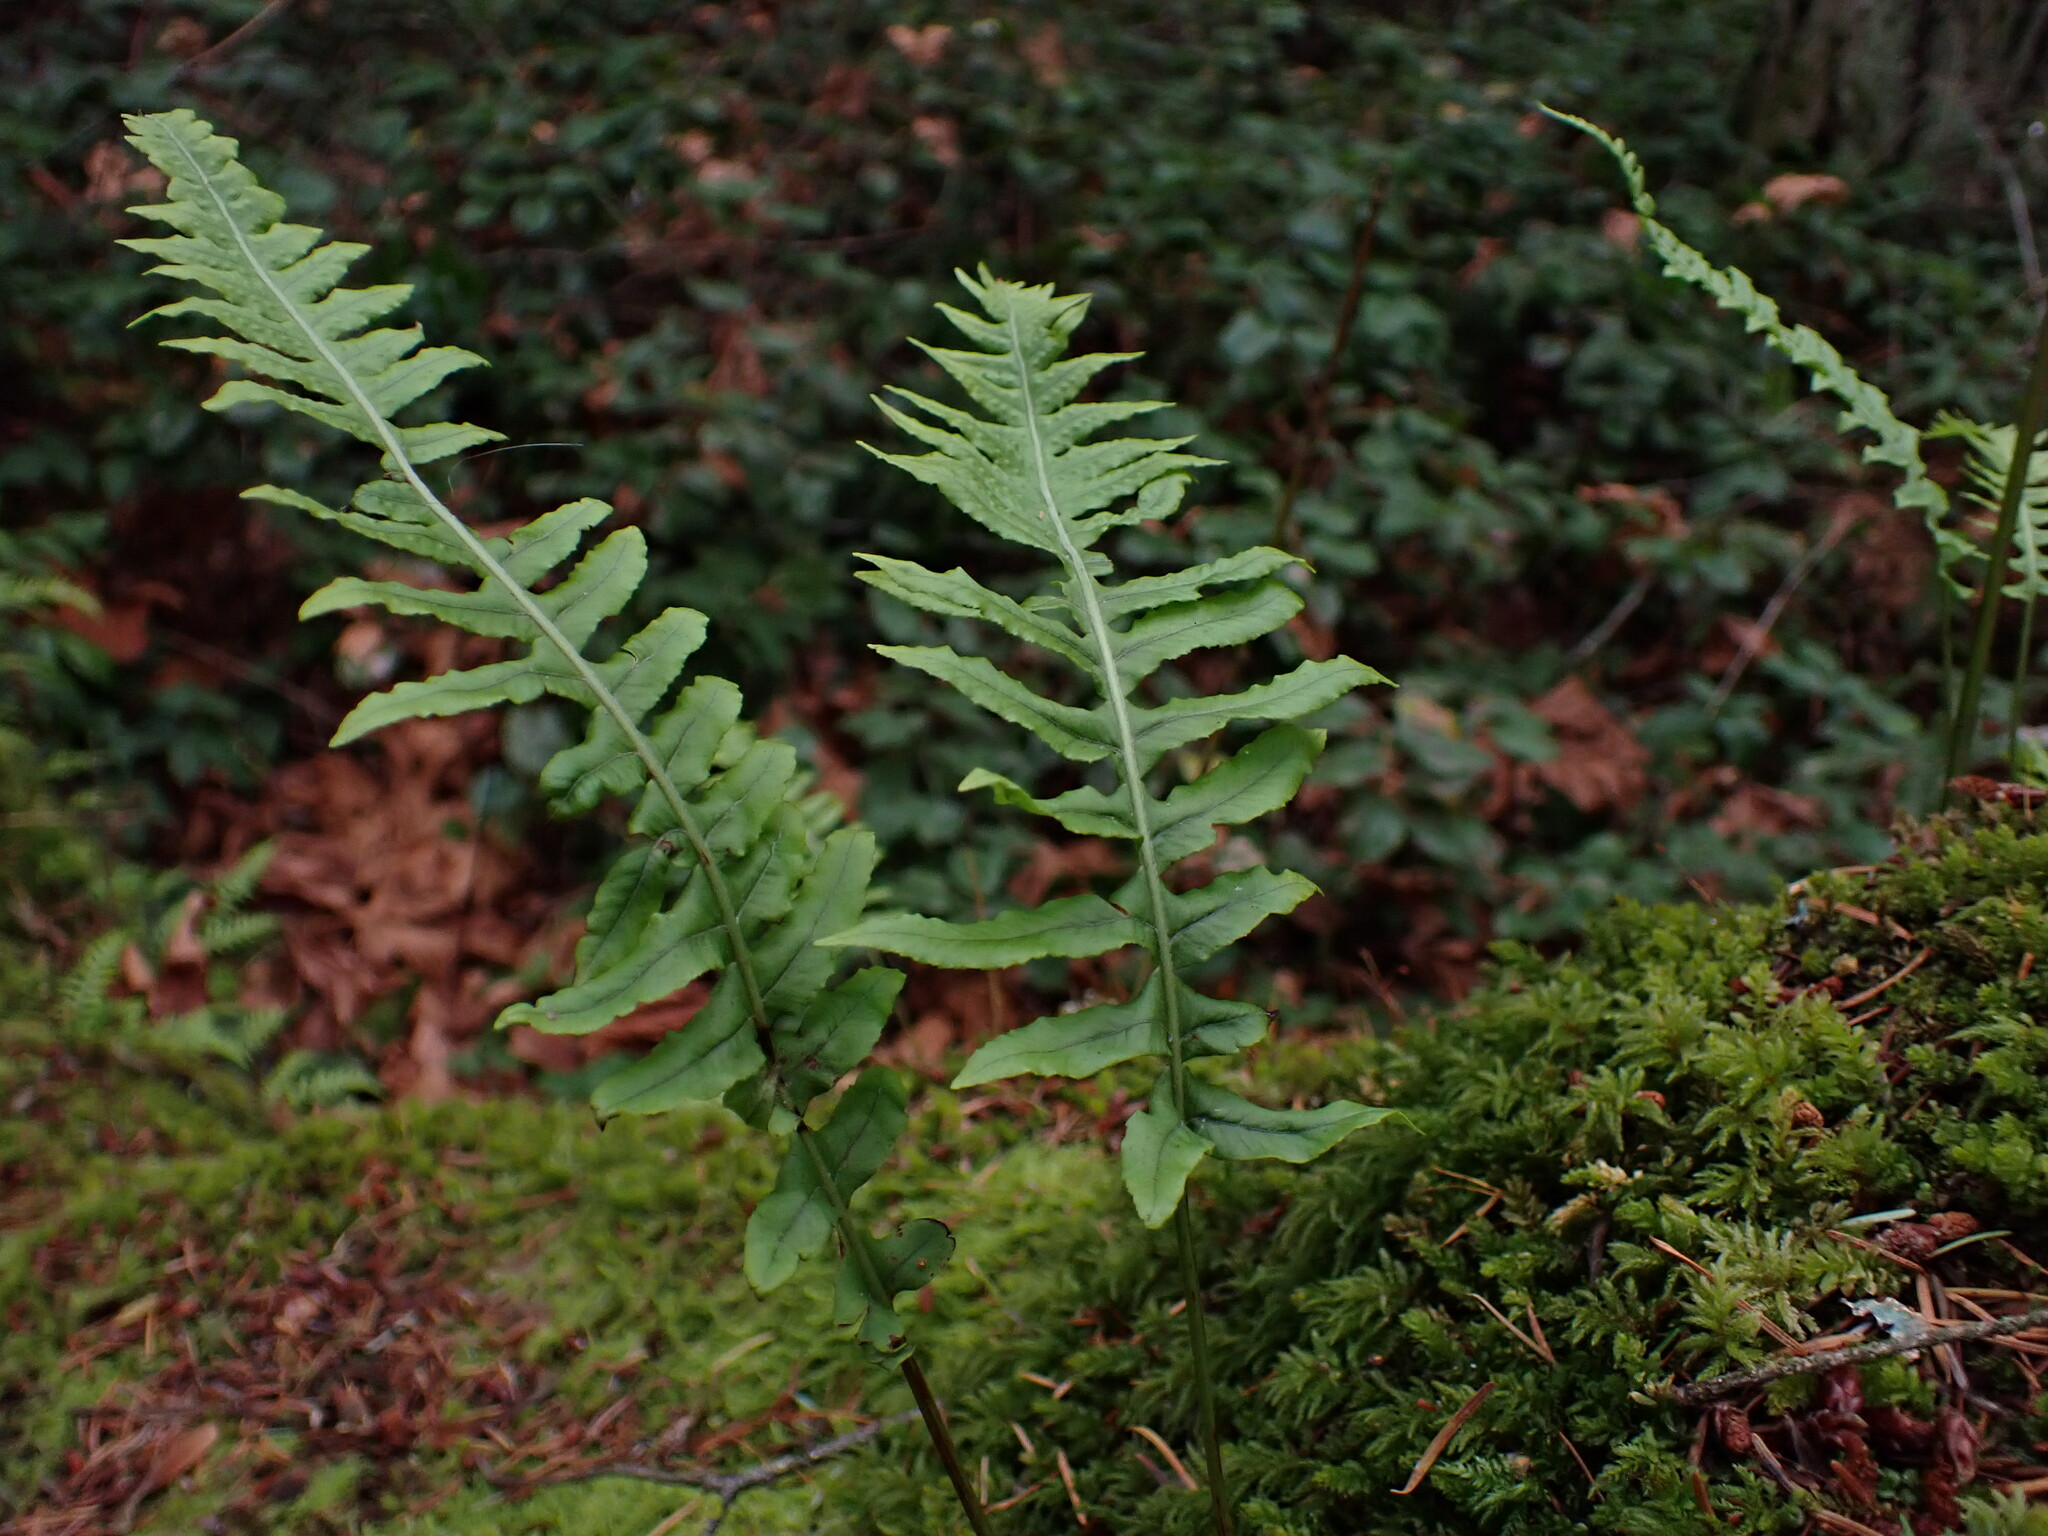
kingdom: Plantae
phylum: Tracheophyta
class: Polypodiopsida
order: Polypodiales
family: Polypodiaceae
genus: Polypodium
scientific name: Polypodium glycyrrhiza
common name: Licorice fern
